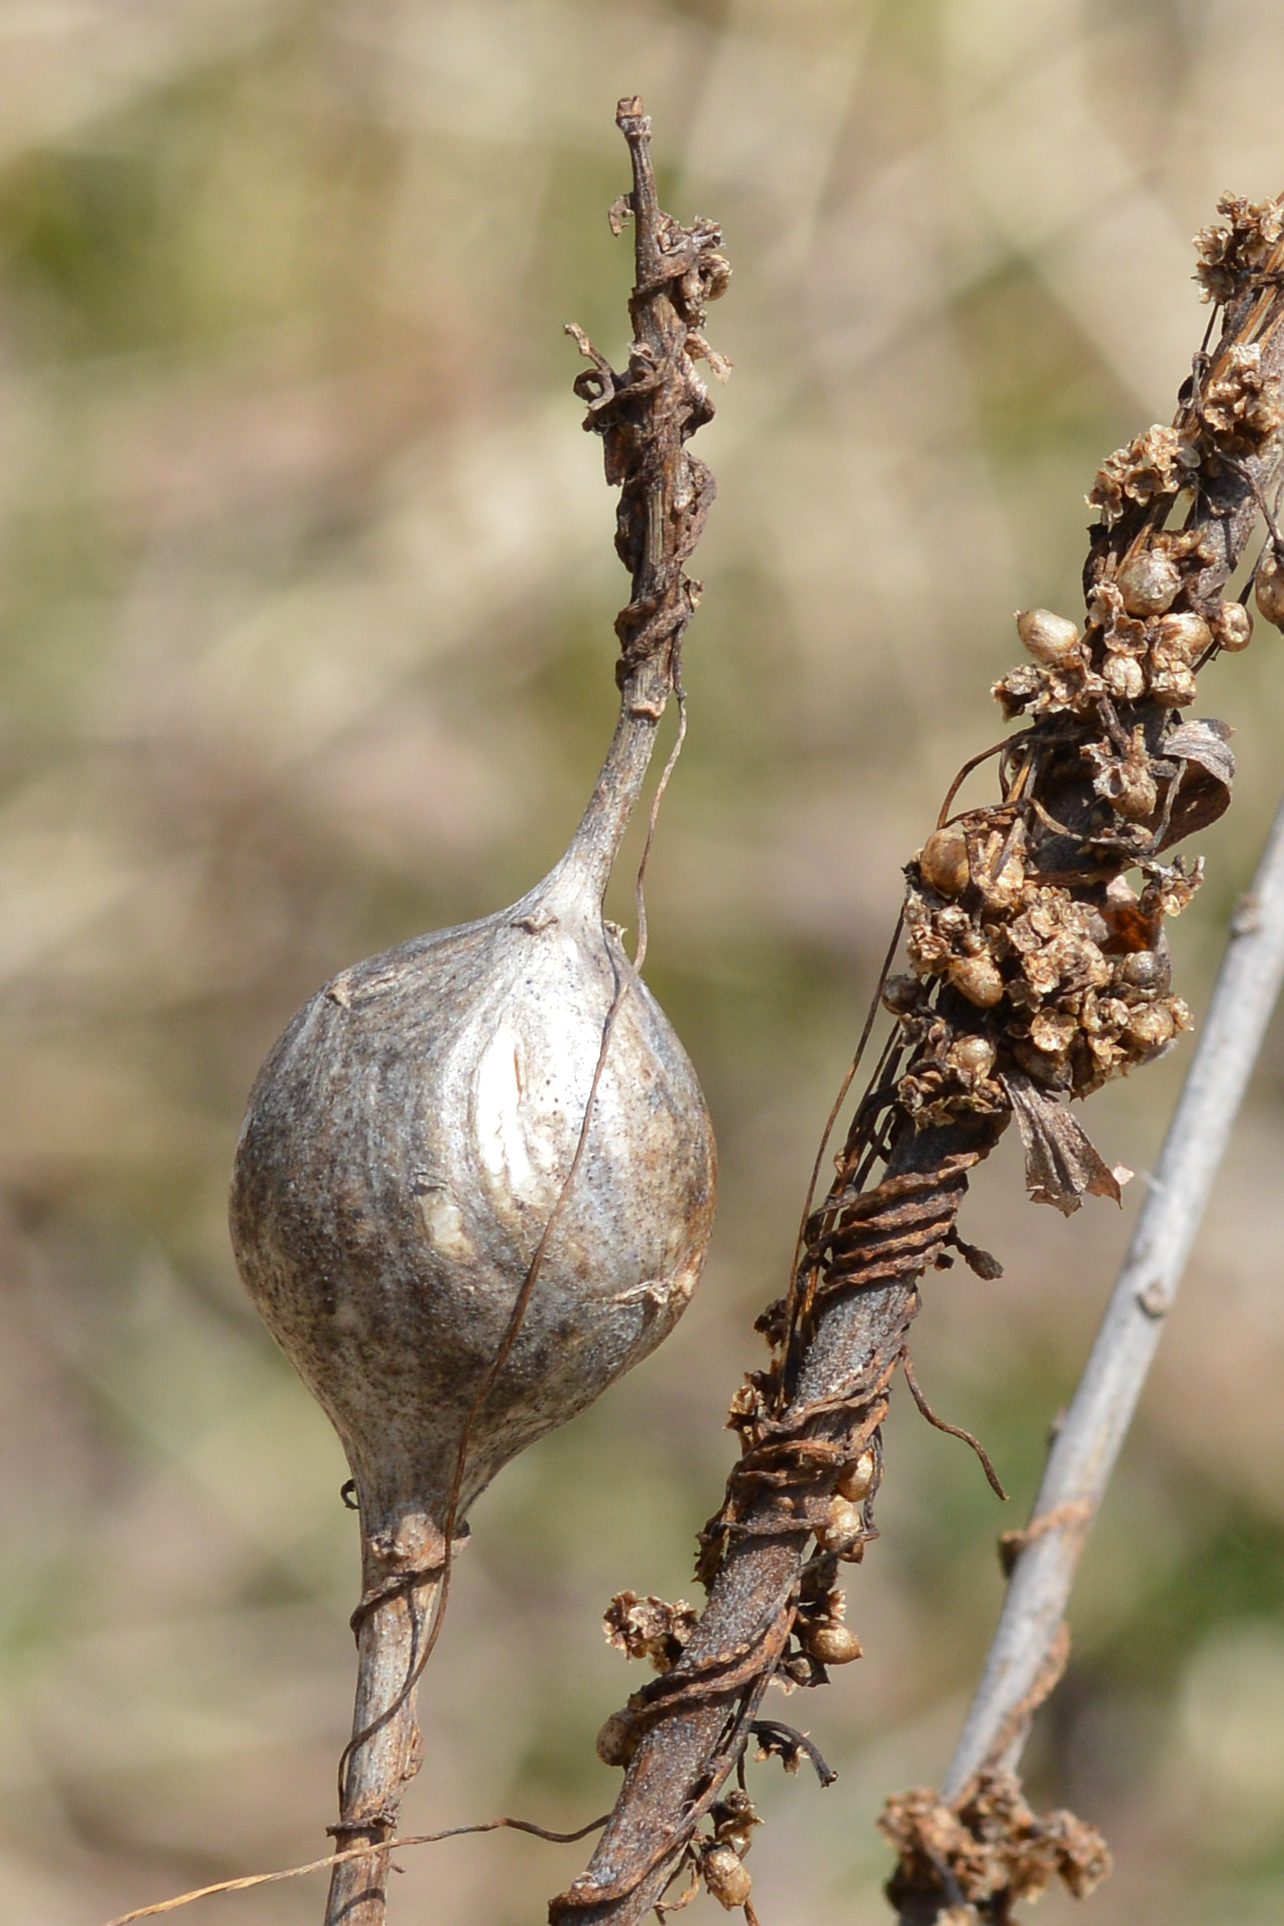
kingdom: Animalia
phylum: Arthropoda
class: Insecta
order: Diptera
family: Tephritidae
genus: Eurosta
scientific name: Eurosta solidaginis
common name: Goldenrod gall fly
